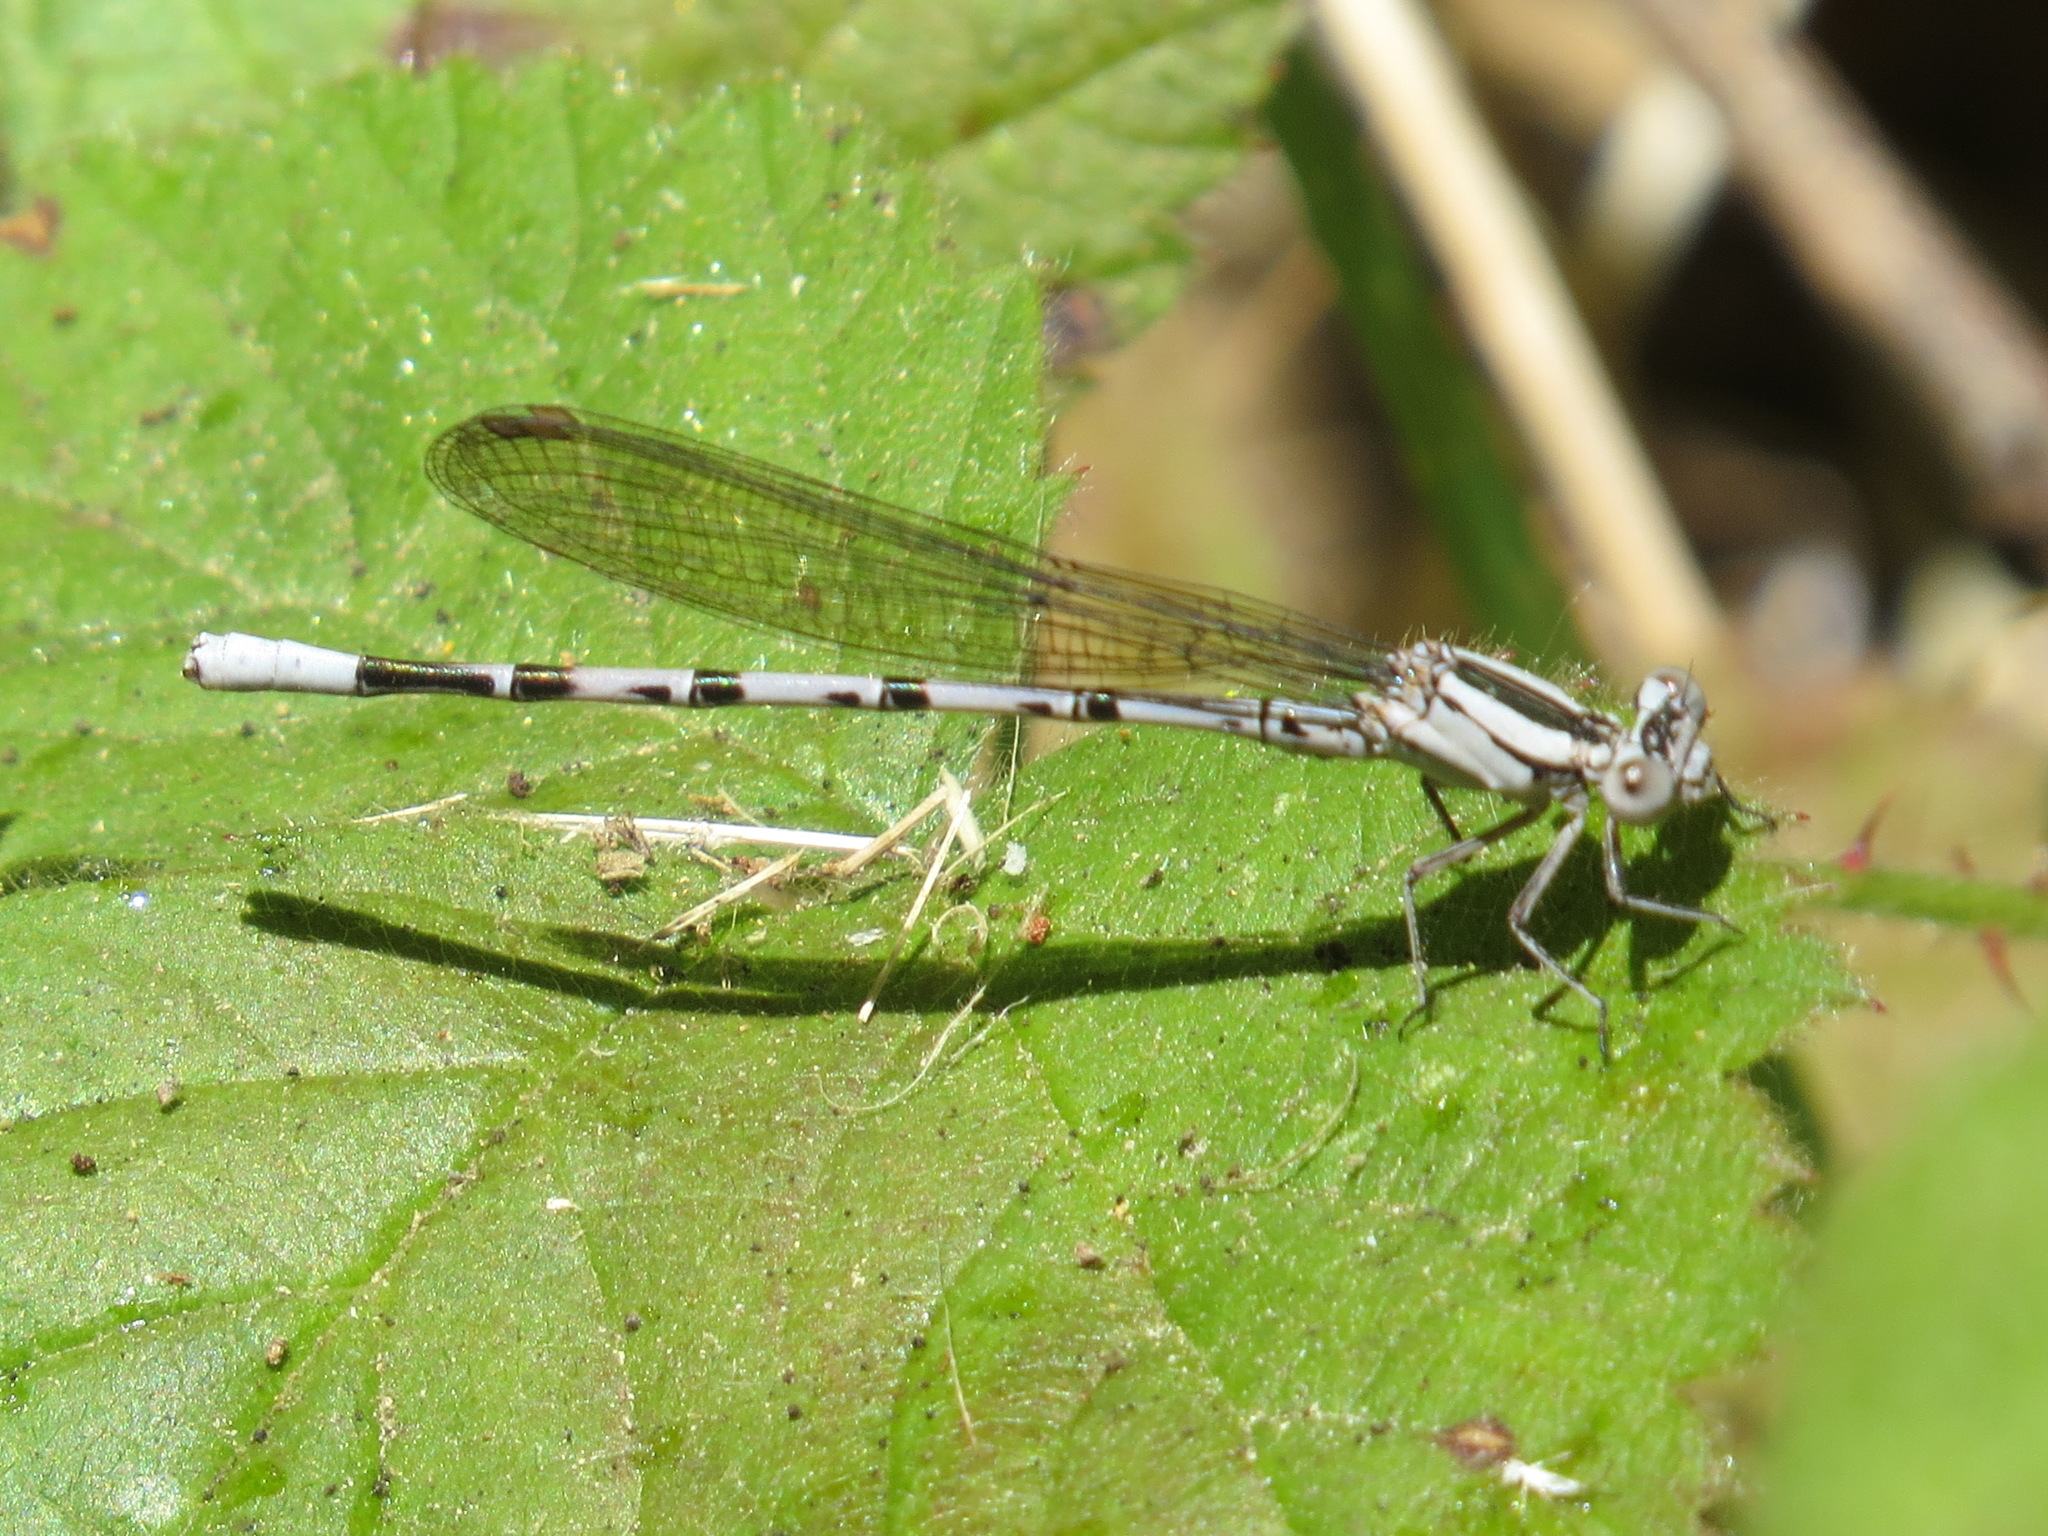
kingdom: Animalia
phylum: Arthropoda
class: Insecta
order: Odonata
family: Coenagrionidae
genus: Argia
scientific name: Argia vivida
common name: Vivid dancer
